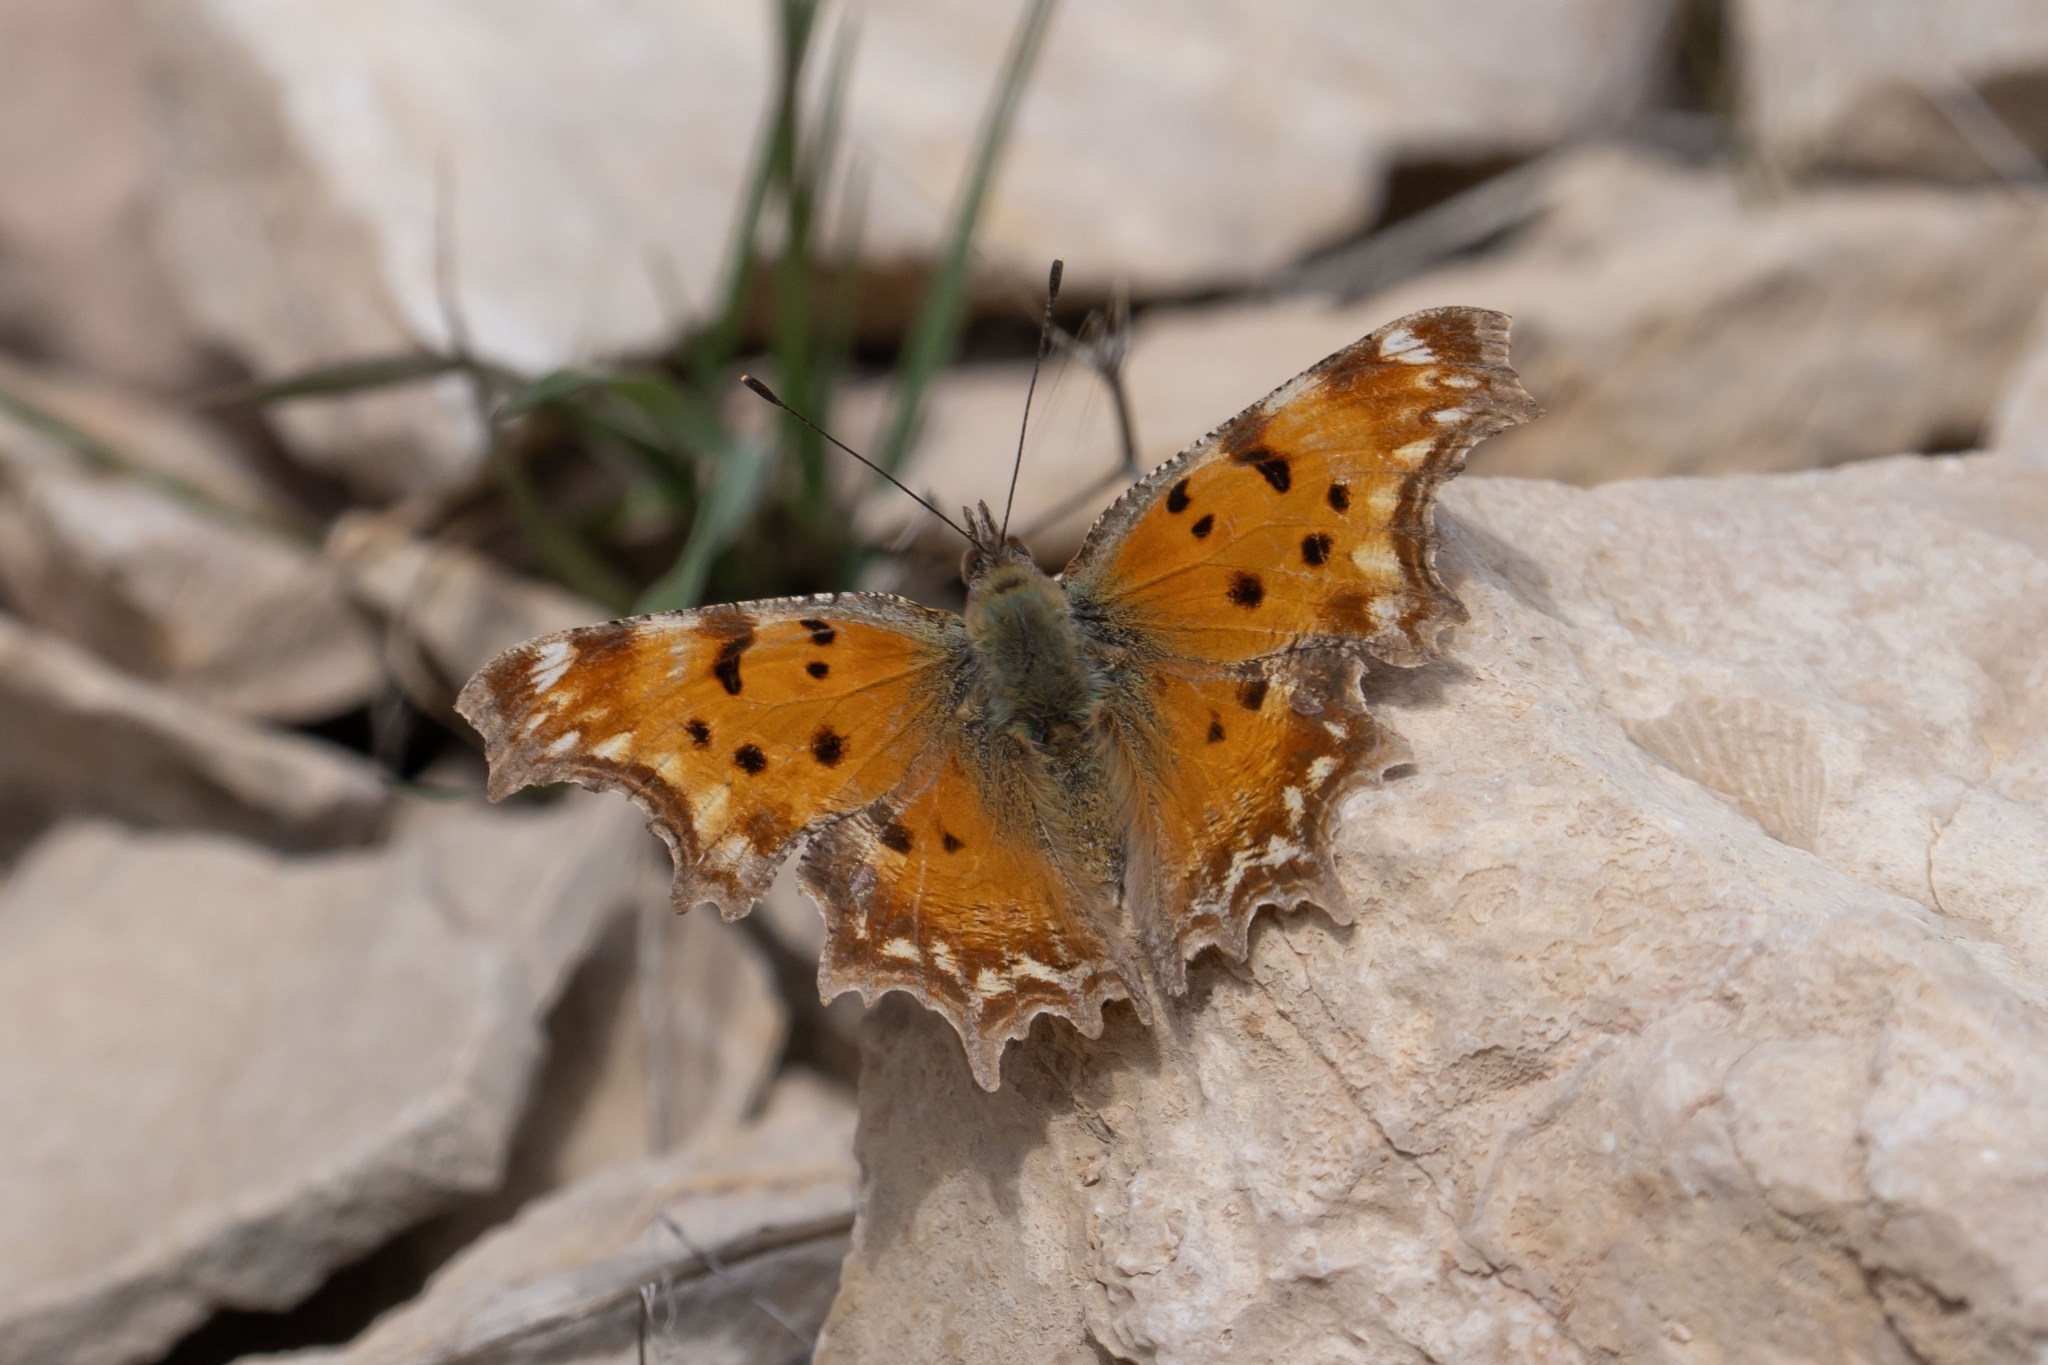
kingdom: Animalia
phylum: Arthropoda
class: Insecta
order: Lepidoptera
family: Nymphalidae
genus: Polygonia
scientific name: Polygonia egea
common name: Southern comma
